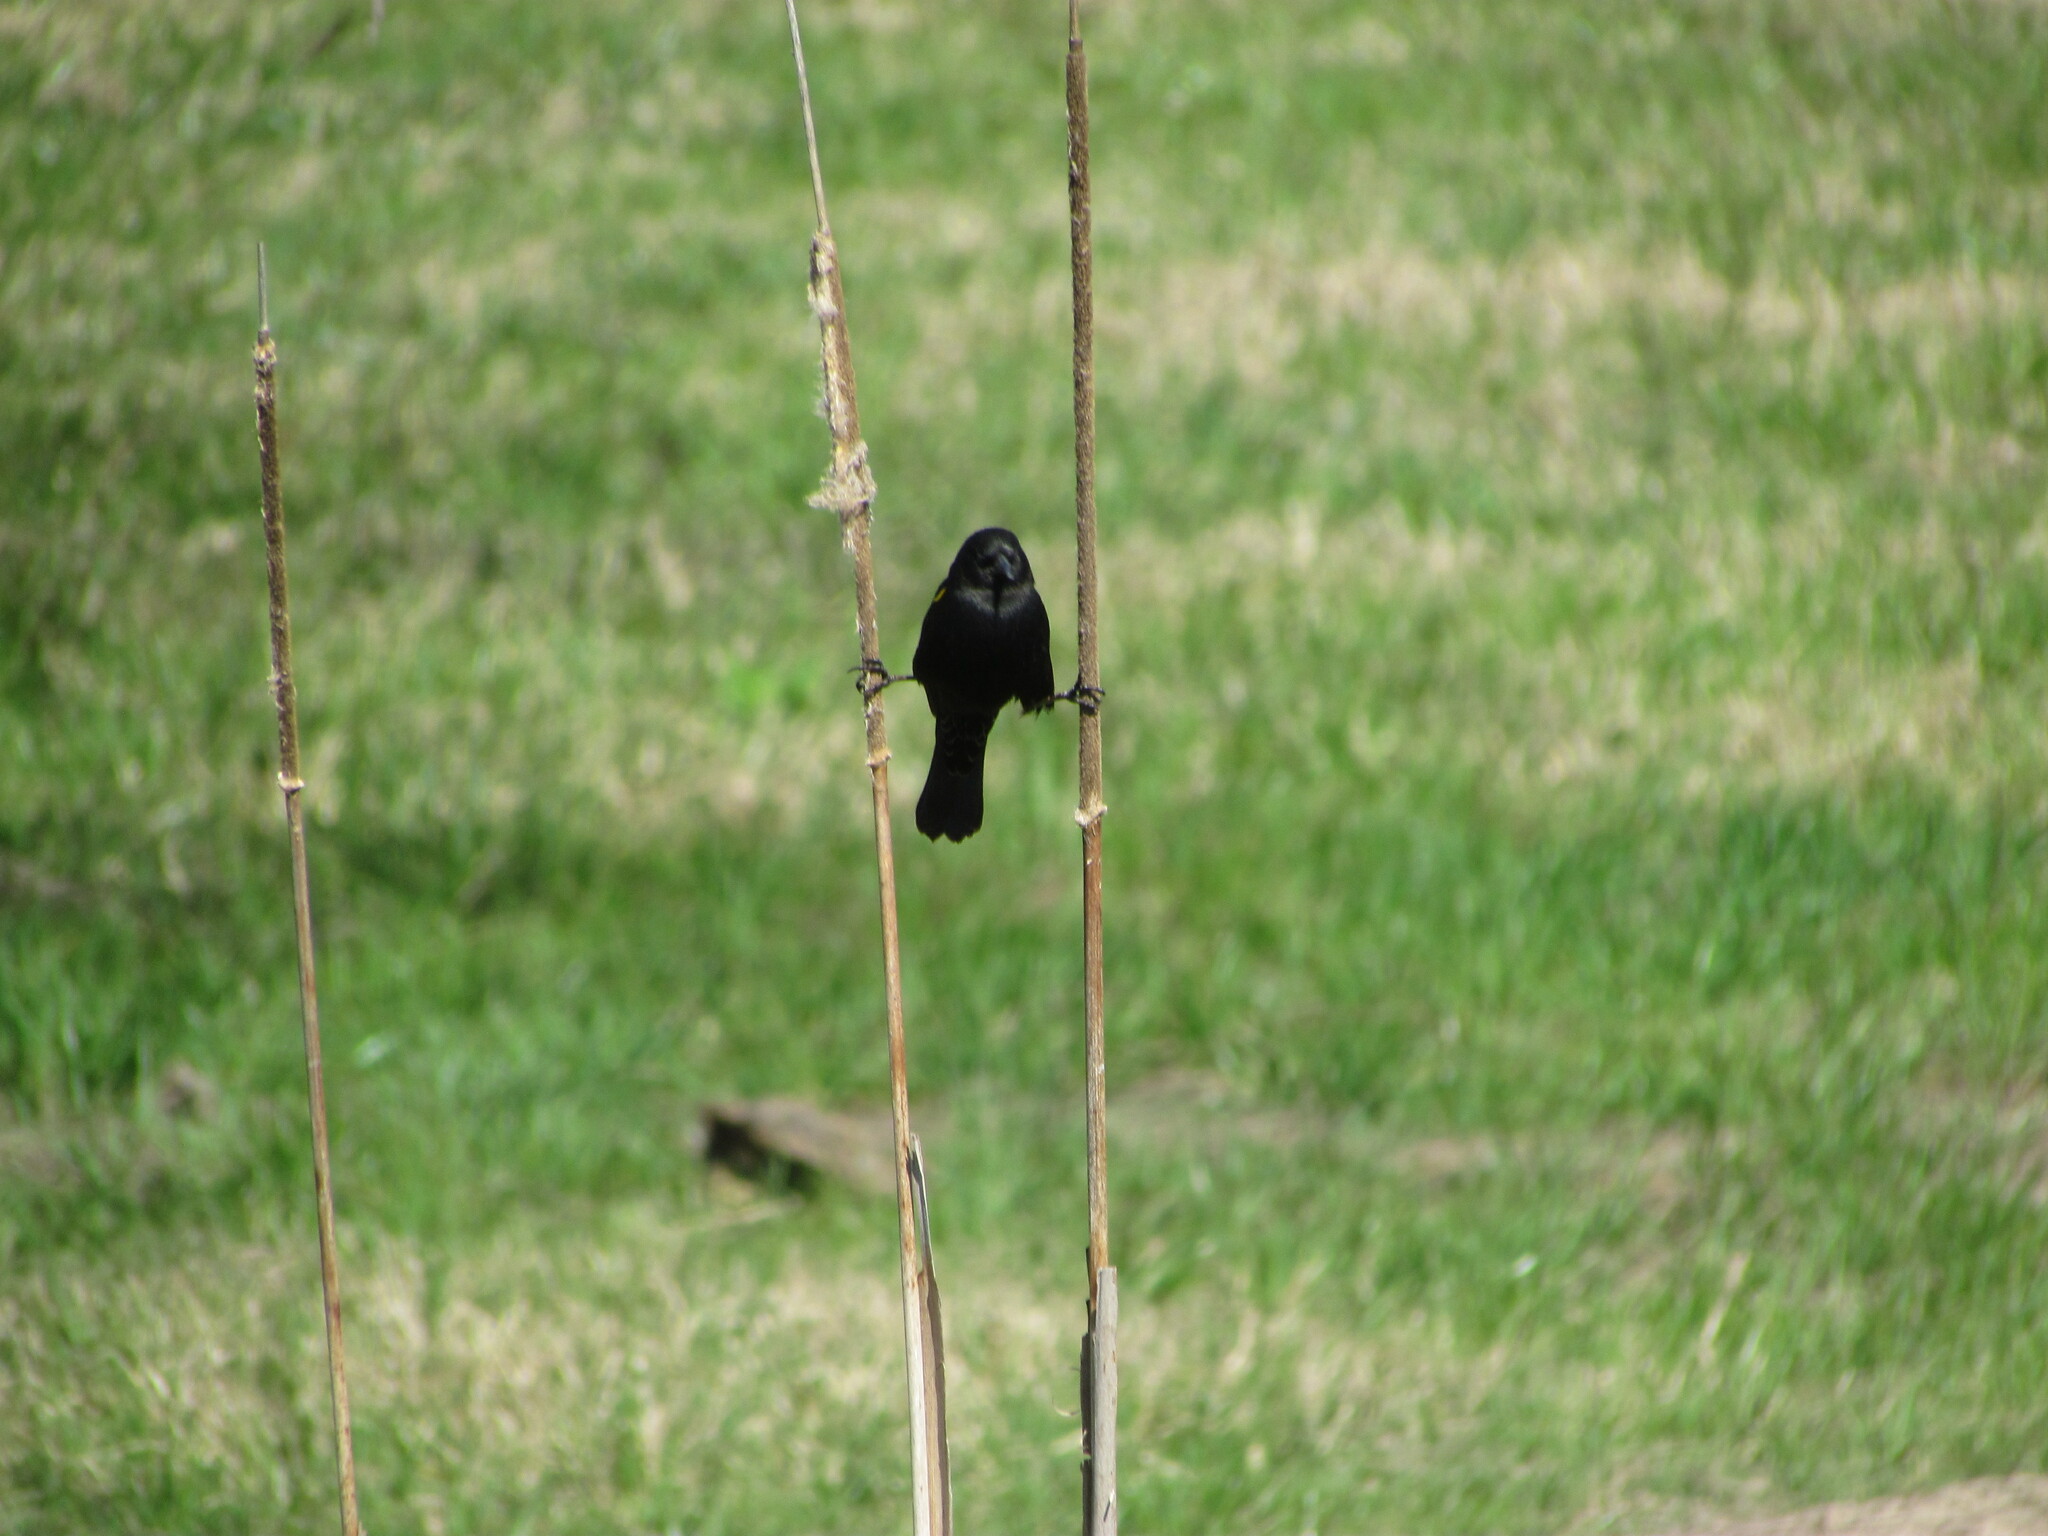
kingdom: Animalia
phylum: Chordata
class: Aves
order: Passeriformes
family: Icteridae
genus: Agelasticus
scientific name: Agelasticus thilius
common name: Yellow-winged blackbird
